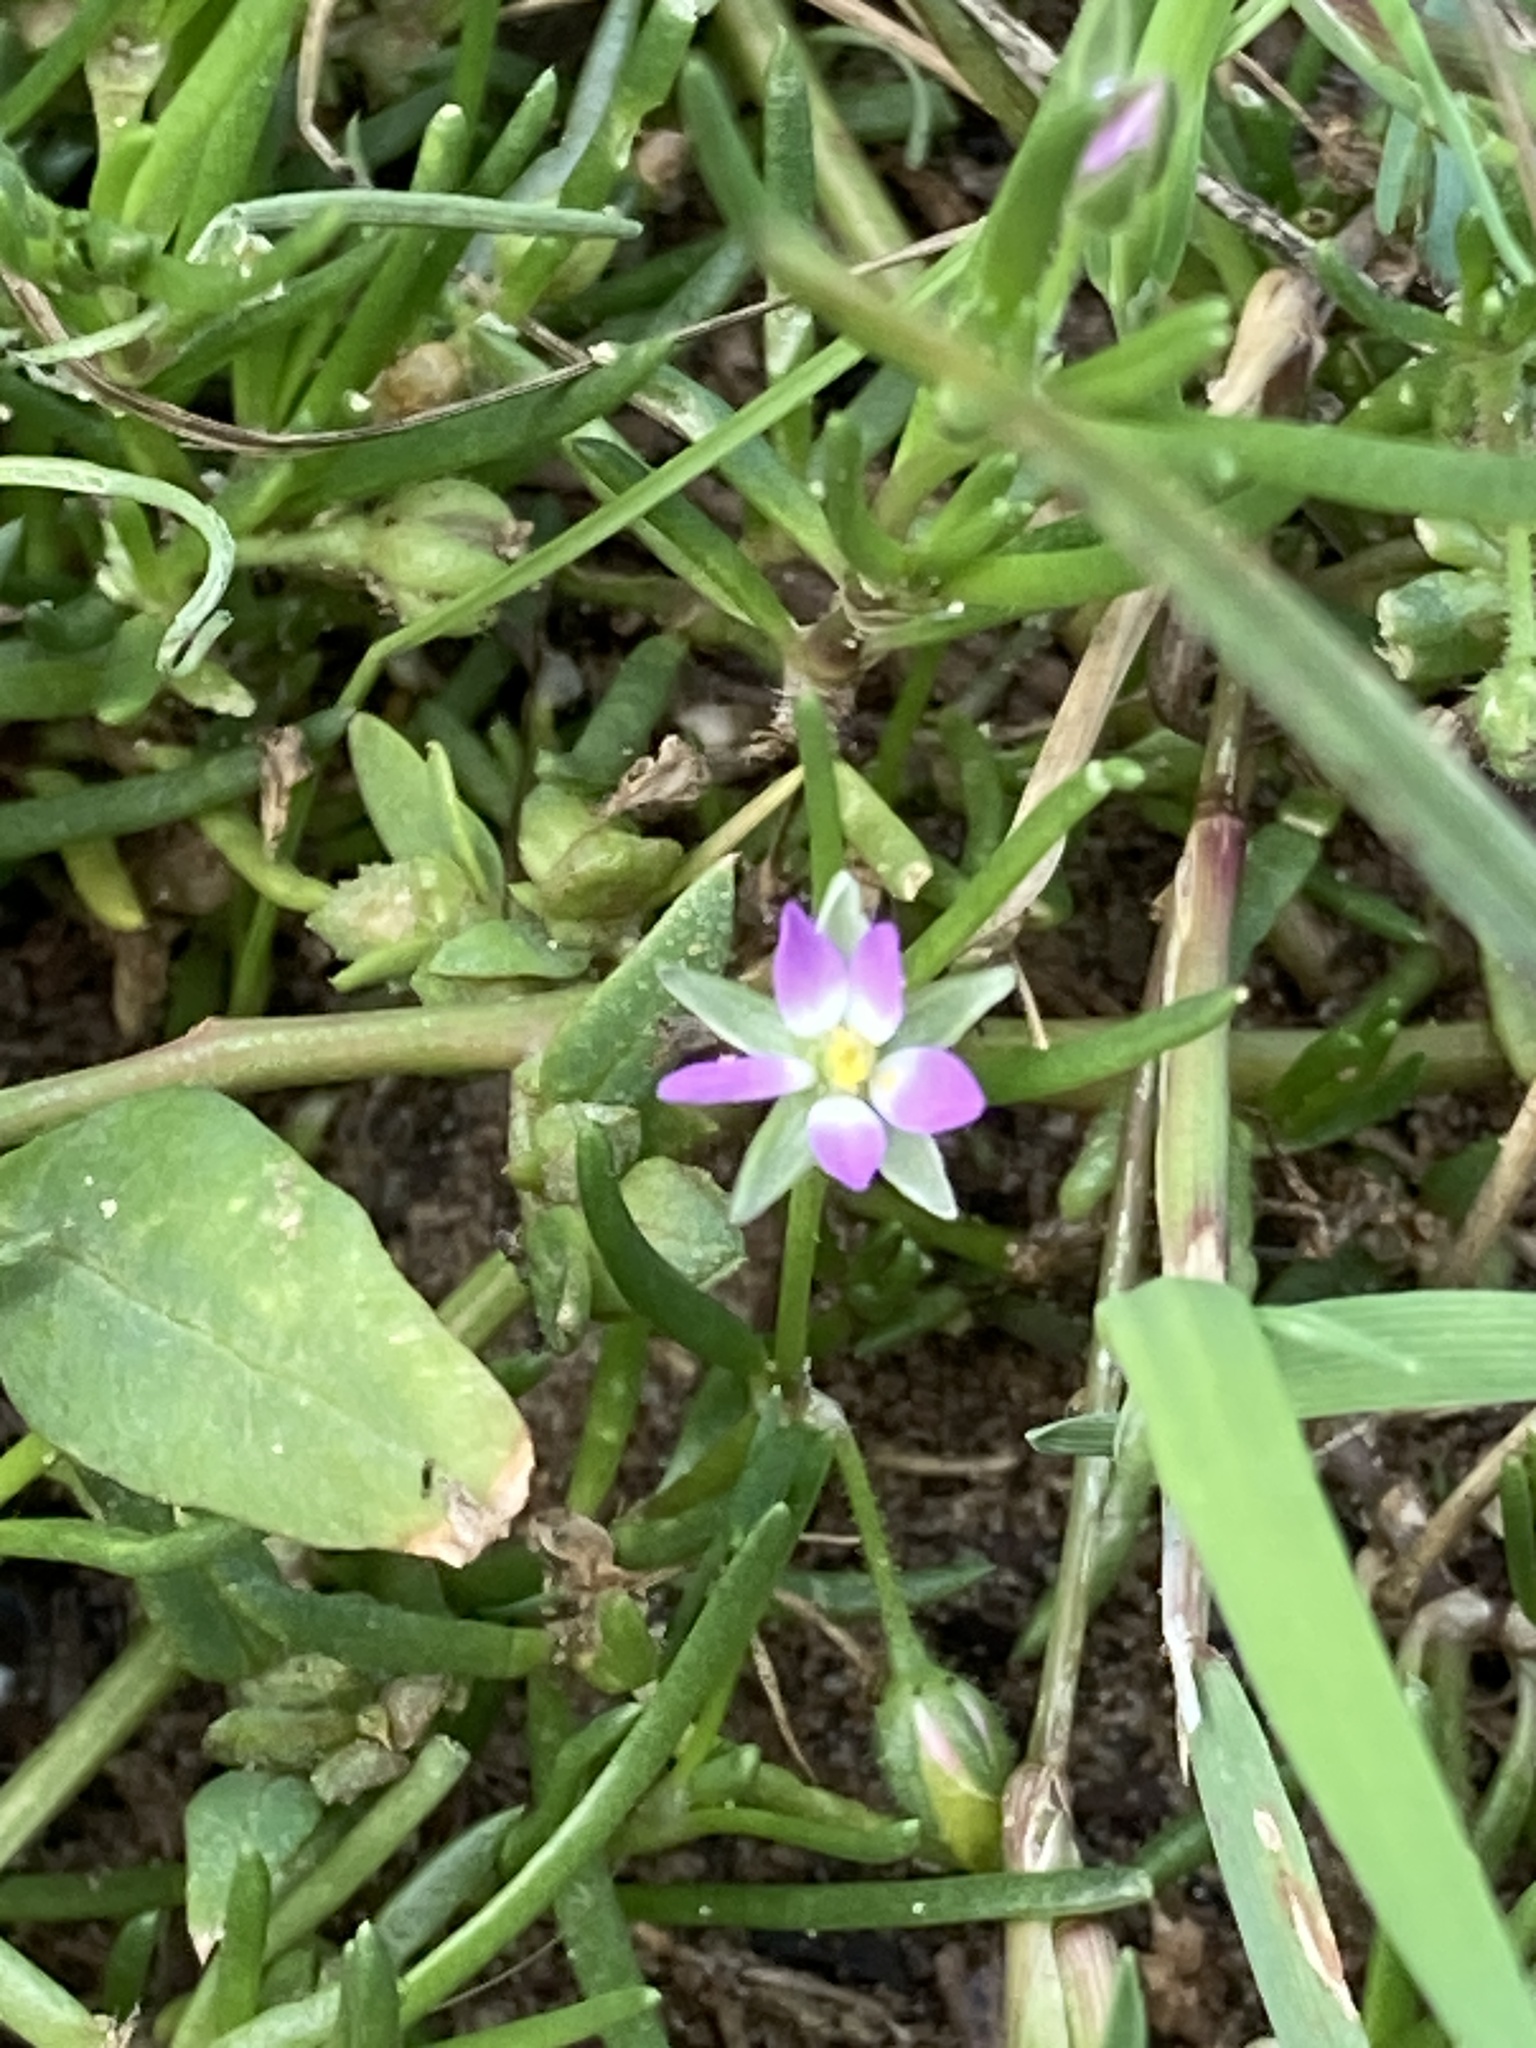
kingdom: Plantae
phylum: Tracheophyta
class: Magnoliopsida
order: Caryophyllales
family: Caryophyllaceae
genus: Spergularia
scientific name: Spergularia marina
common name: Lesser sea-spurrey
